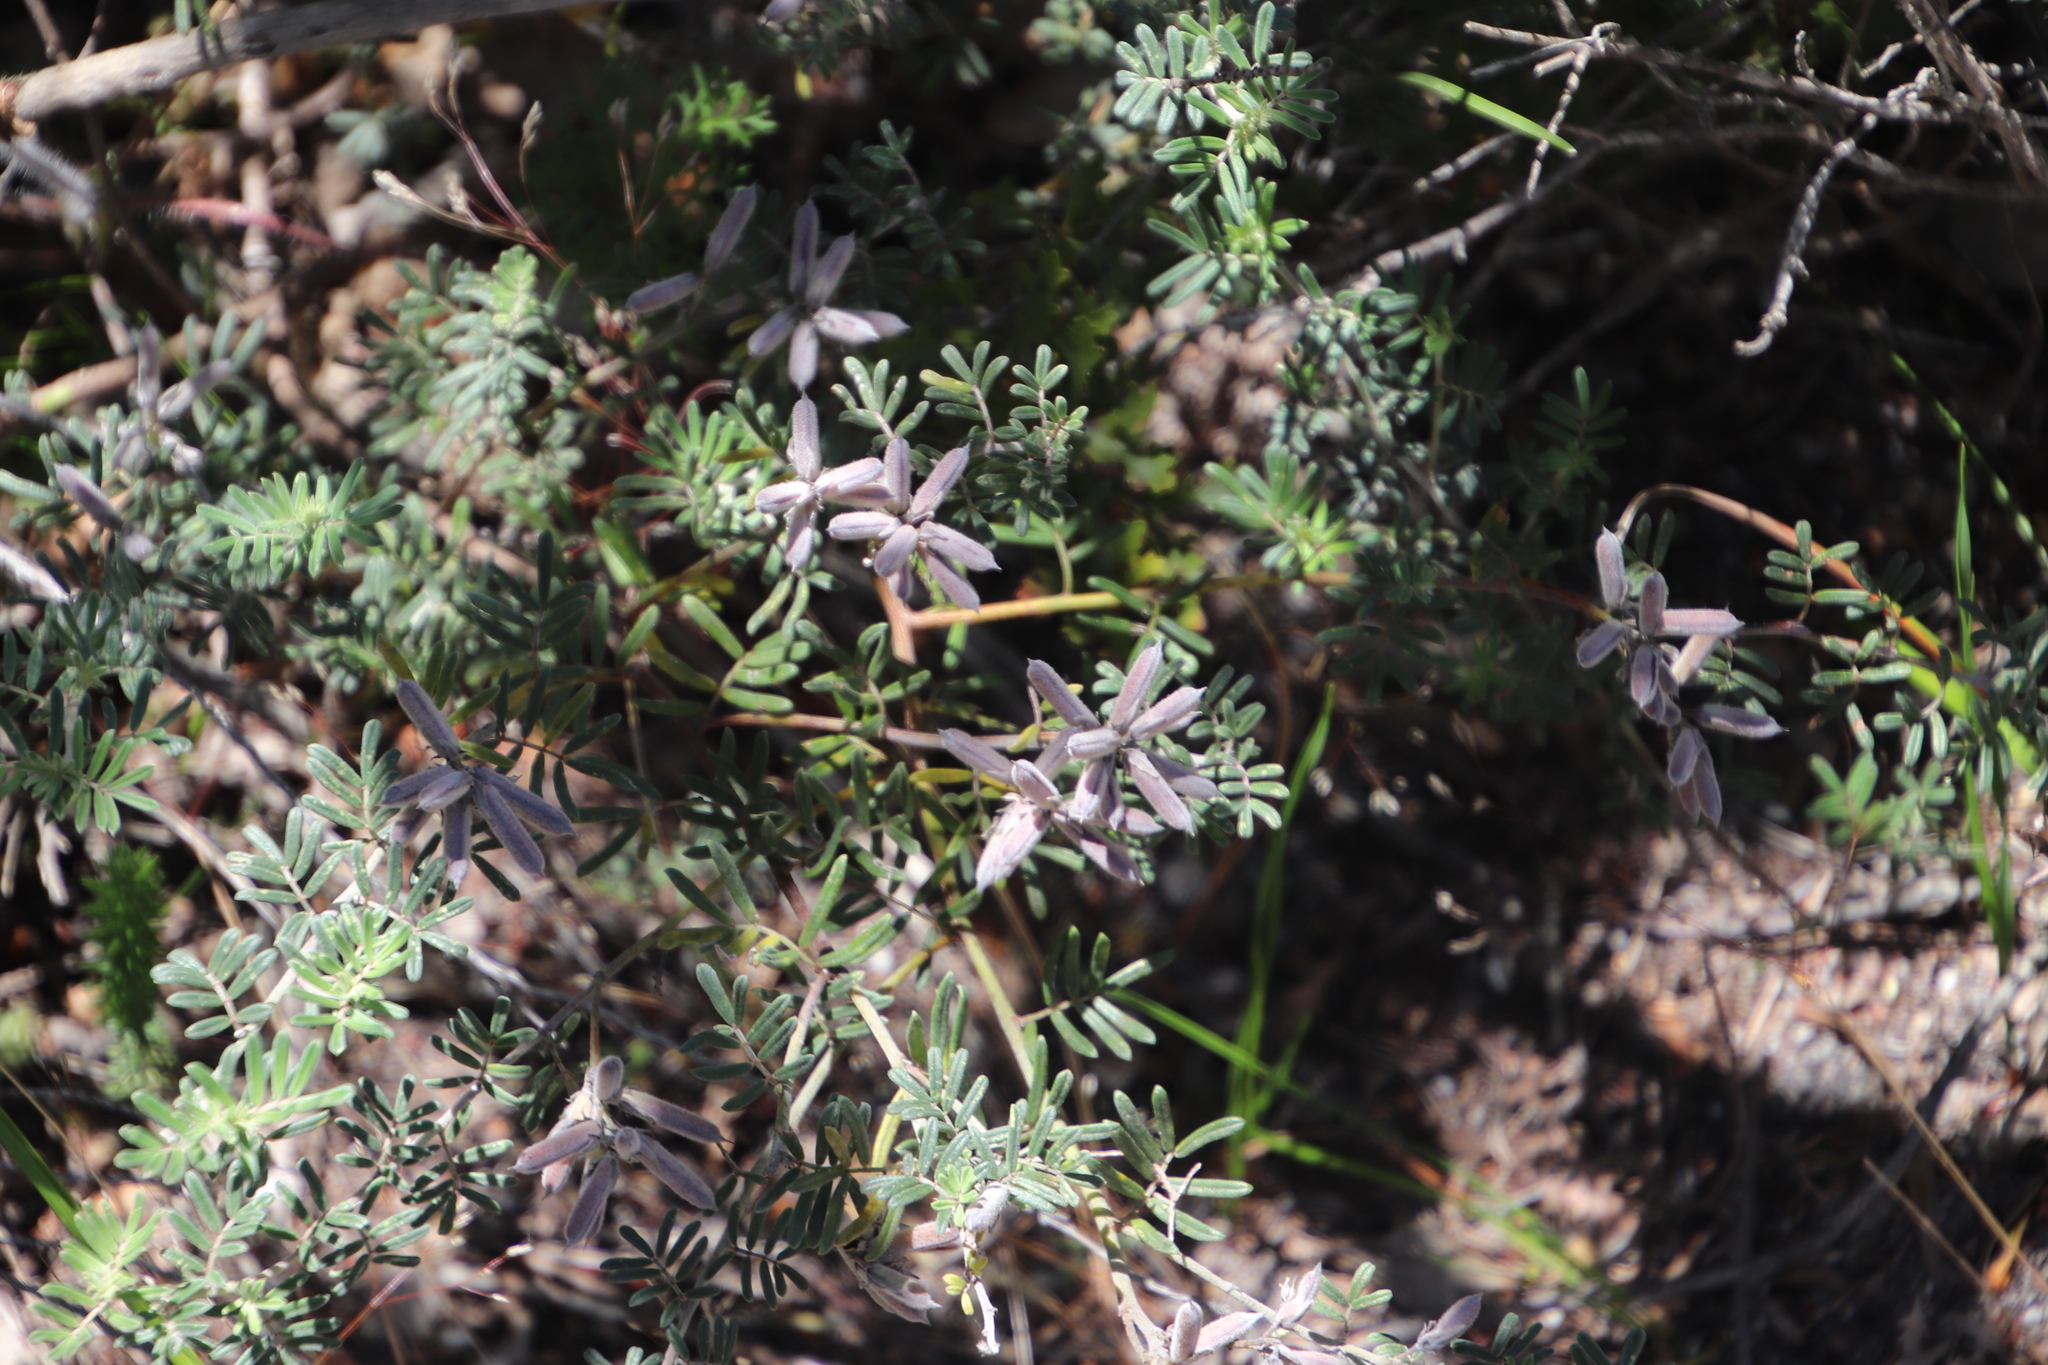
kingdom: Plantae
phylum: Tracheophyta
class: Magnoliopsida
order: Fabales
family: Fabaceae
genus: Microcharis
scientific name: Microcharis praetermissa
